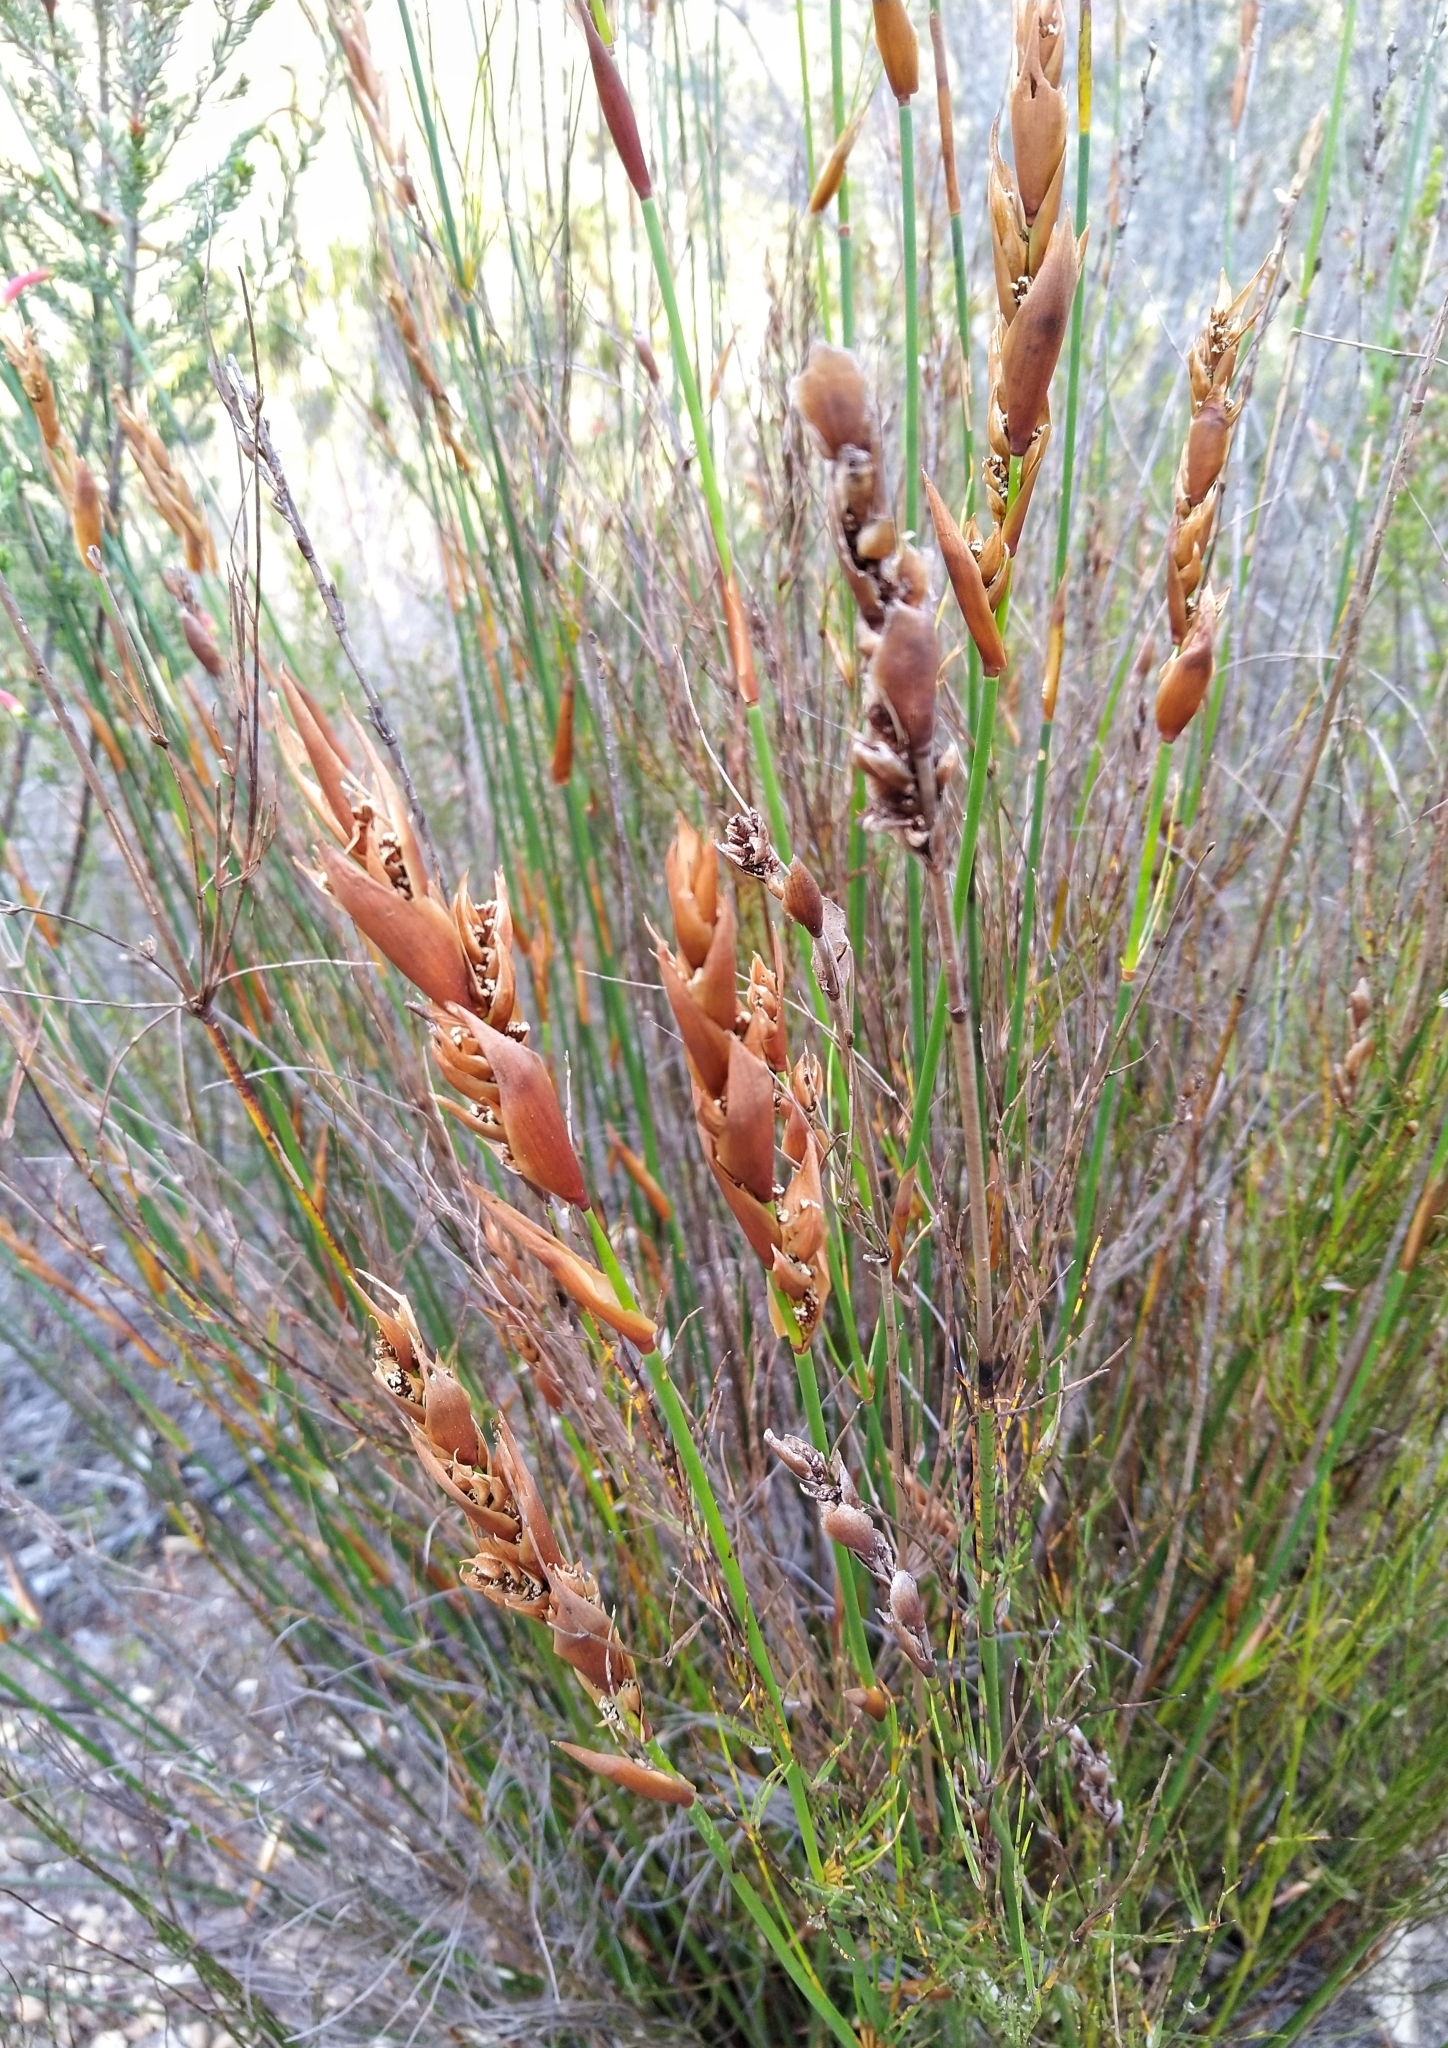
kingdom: Plantae
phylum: Tracheophyta
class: Liliopsida
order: Poales
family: Restionaceae
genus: Elegia
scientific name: Elegia equisetacea
